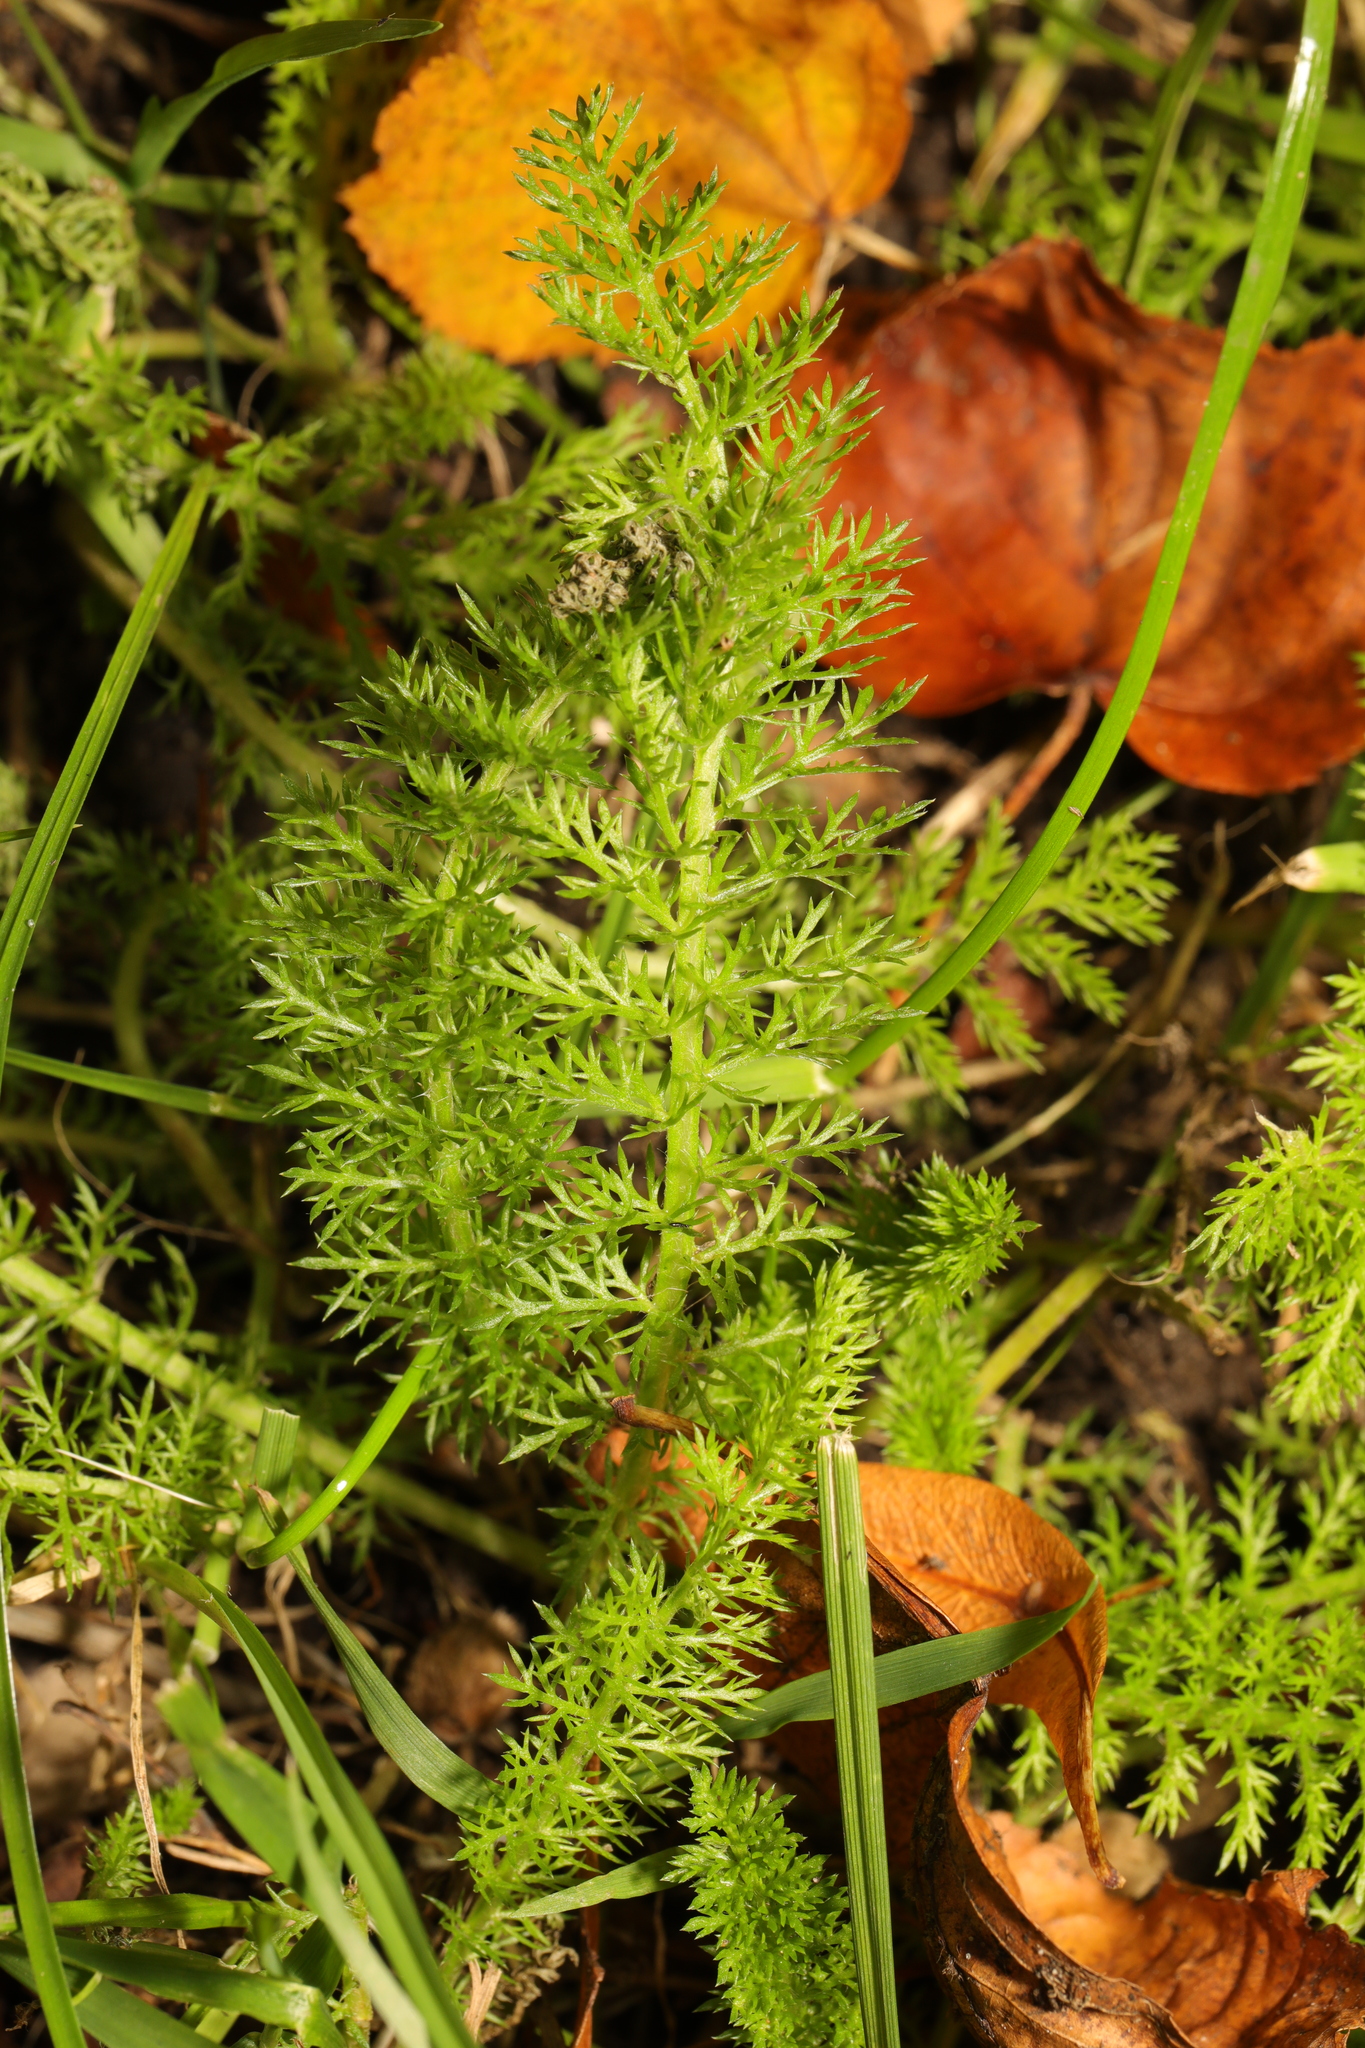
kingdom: Plantae
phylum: Tracheophyta
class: Magnoliopsida
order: Asterales
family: Asteraceae
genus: Achillea
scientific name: Achillea millefolium
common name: Yarrow
